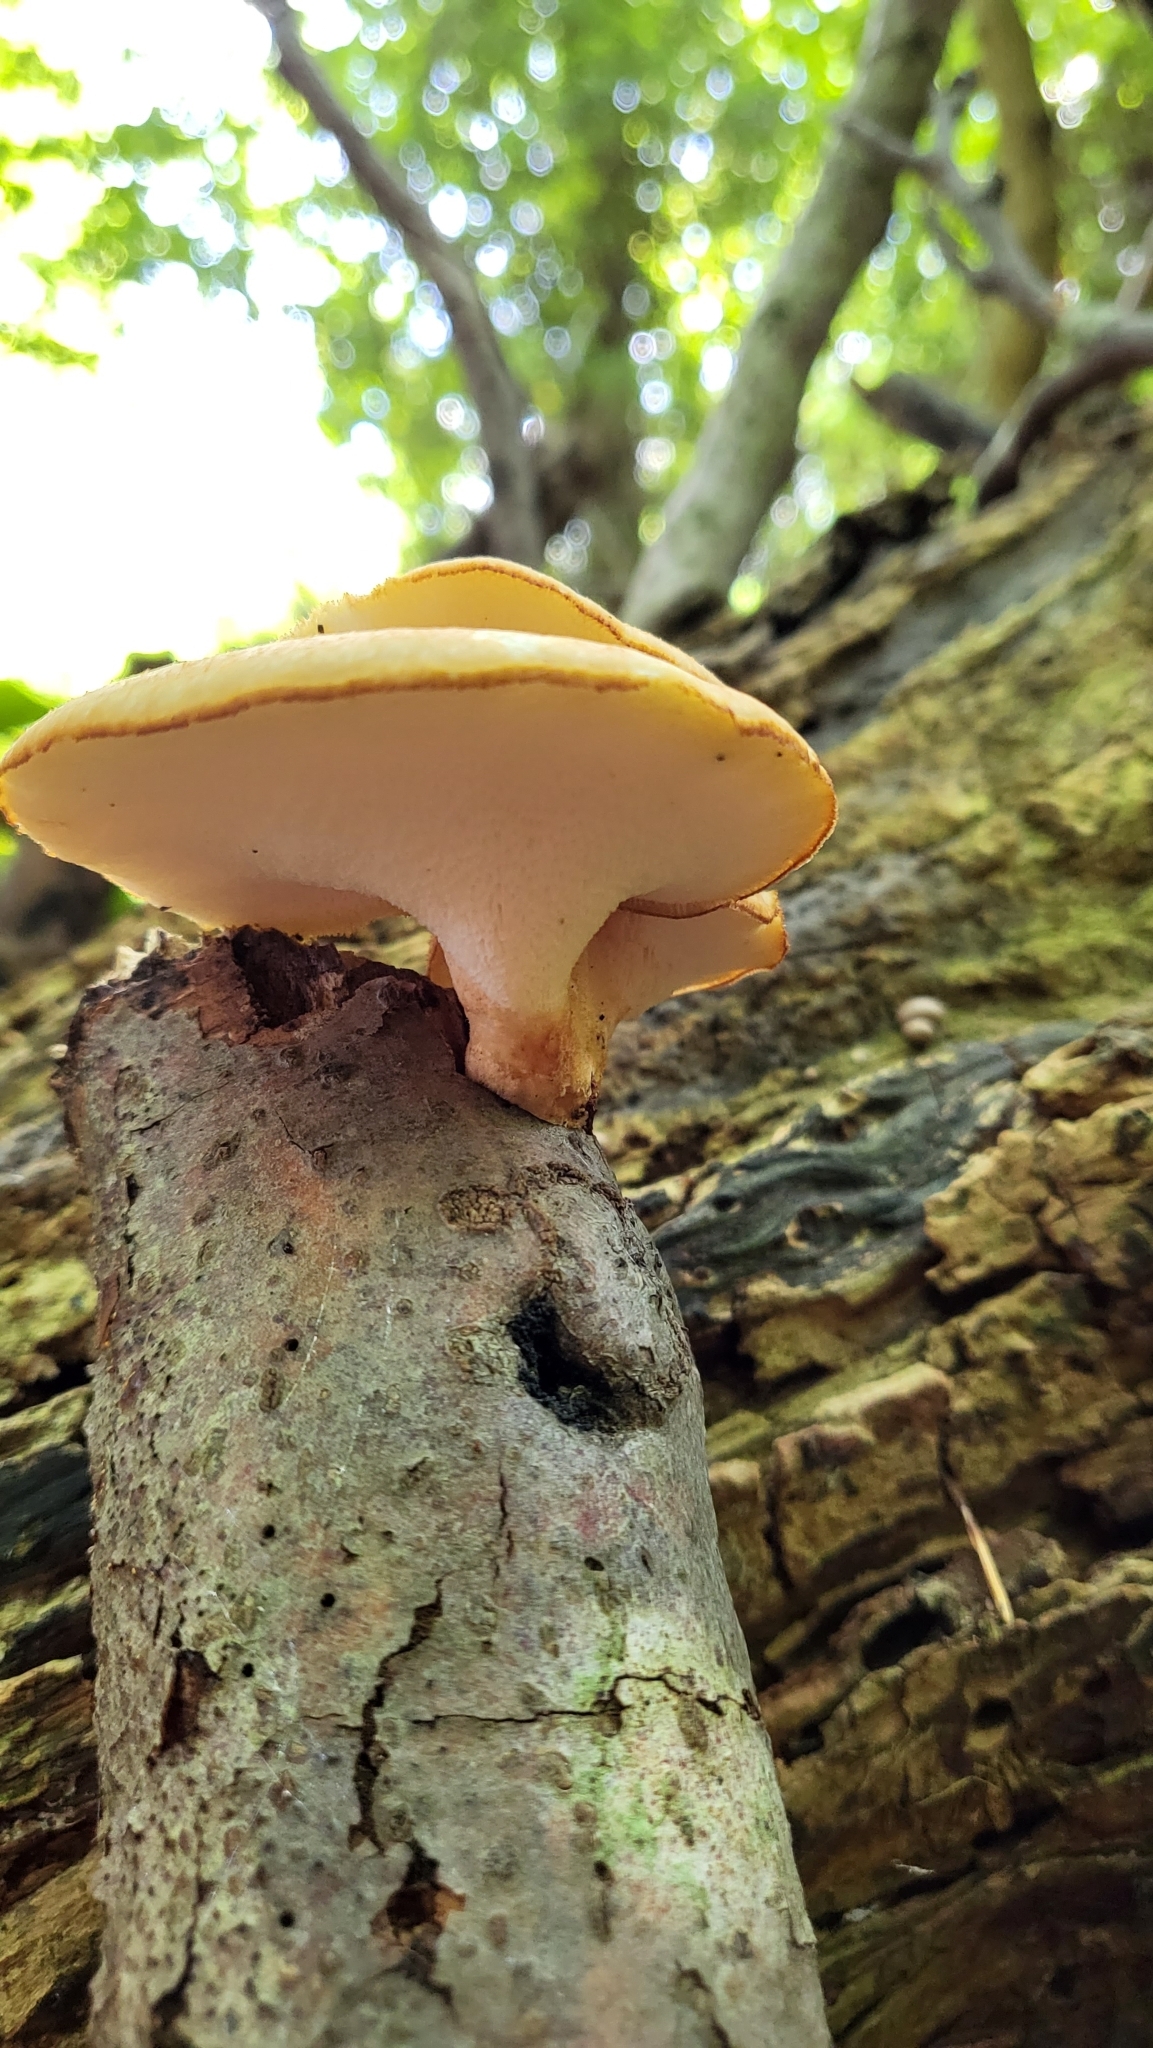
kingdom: Fungi
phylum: Basidiomycota
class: Agaricomycetes
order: Polyporales
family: Polyporaceae
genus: Polyporus
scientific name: Polyporus tuberaster
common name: Tuberous polypore
